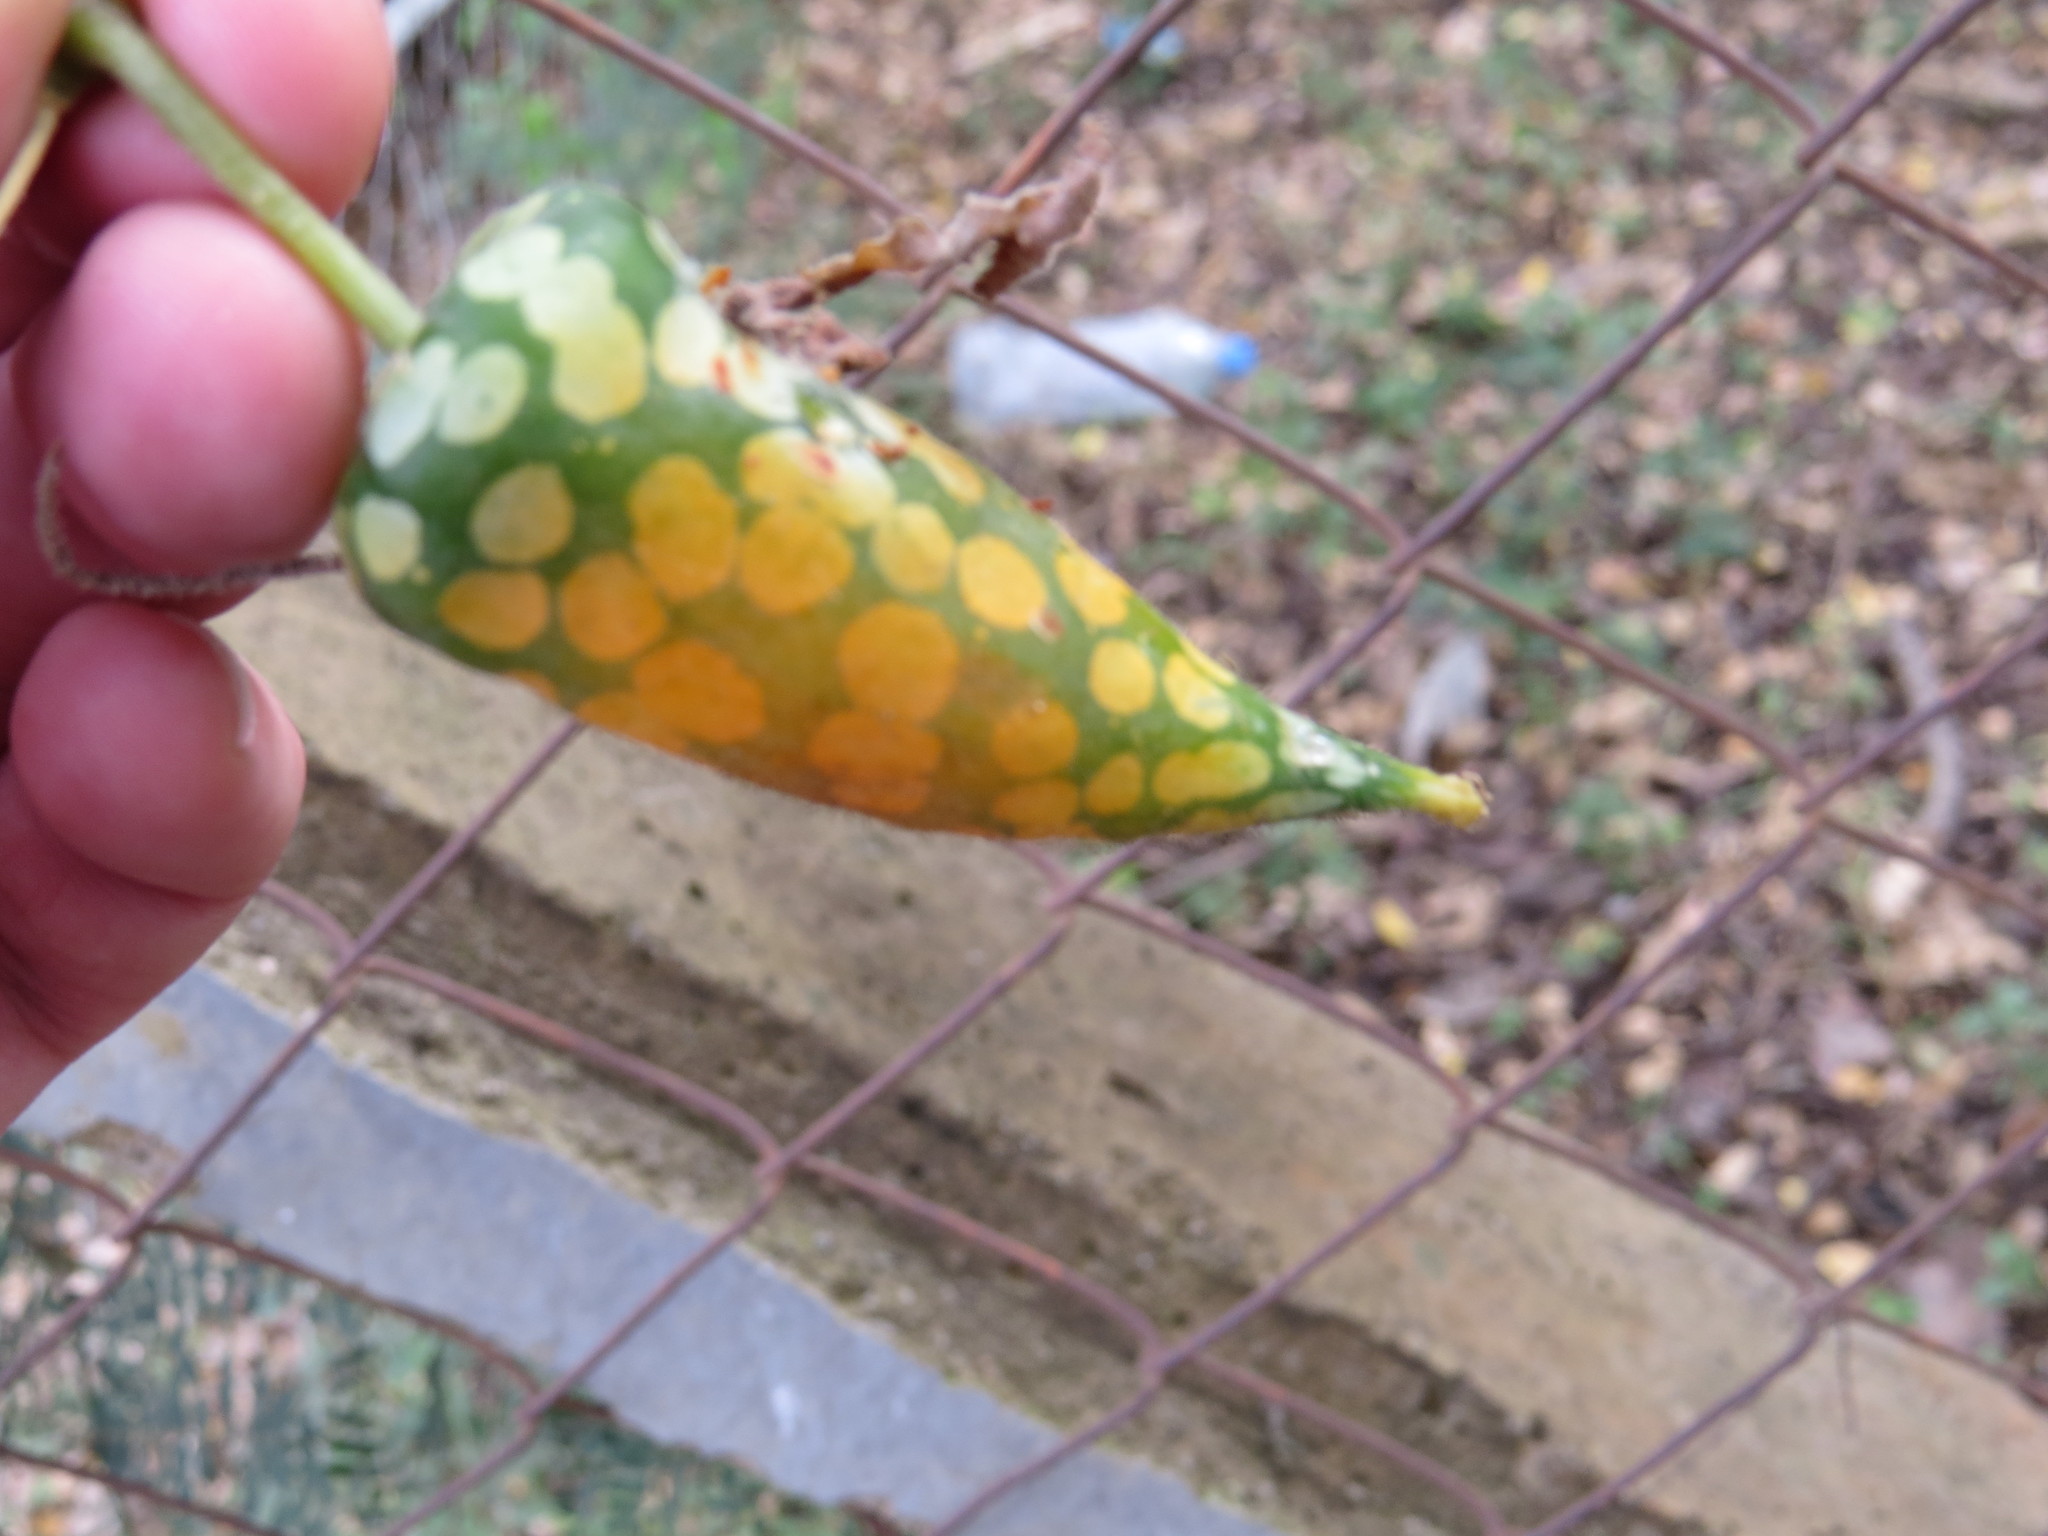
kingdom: Plantae
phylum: Tracheophyta
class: Magnoliopsida
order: Cucurbitales
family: Cucurbitaceae
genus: Kedrostis
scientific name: Kedrostis leloja
